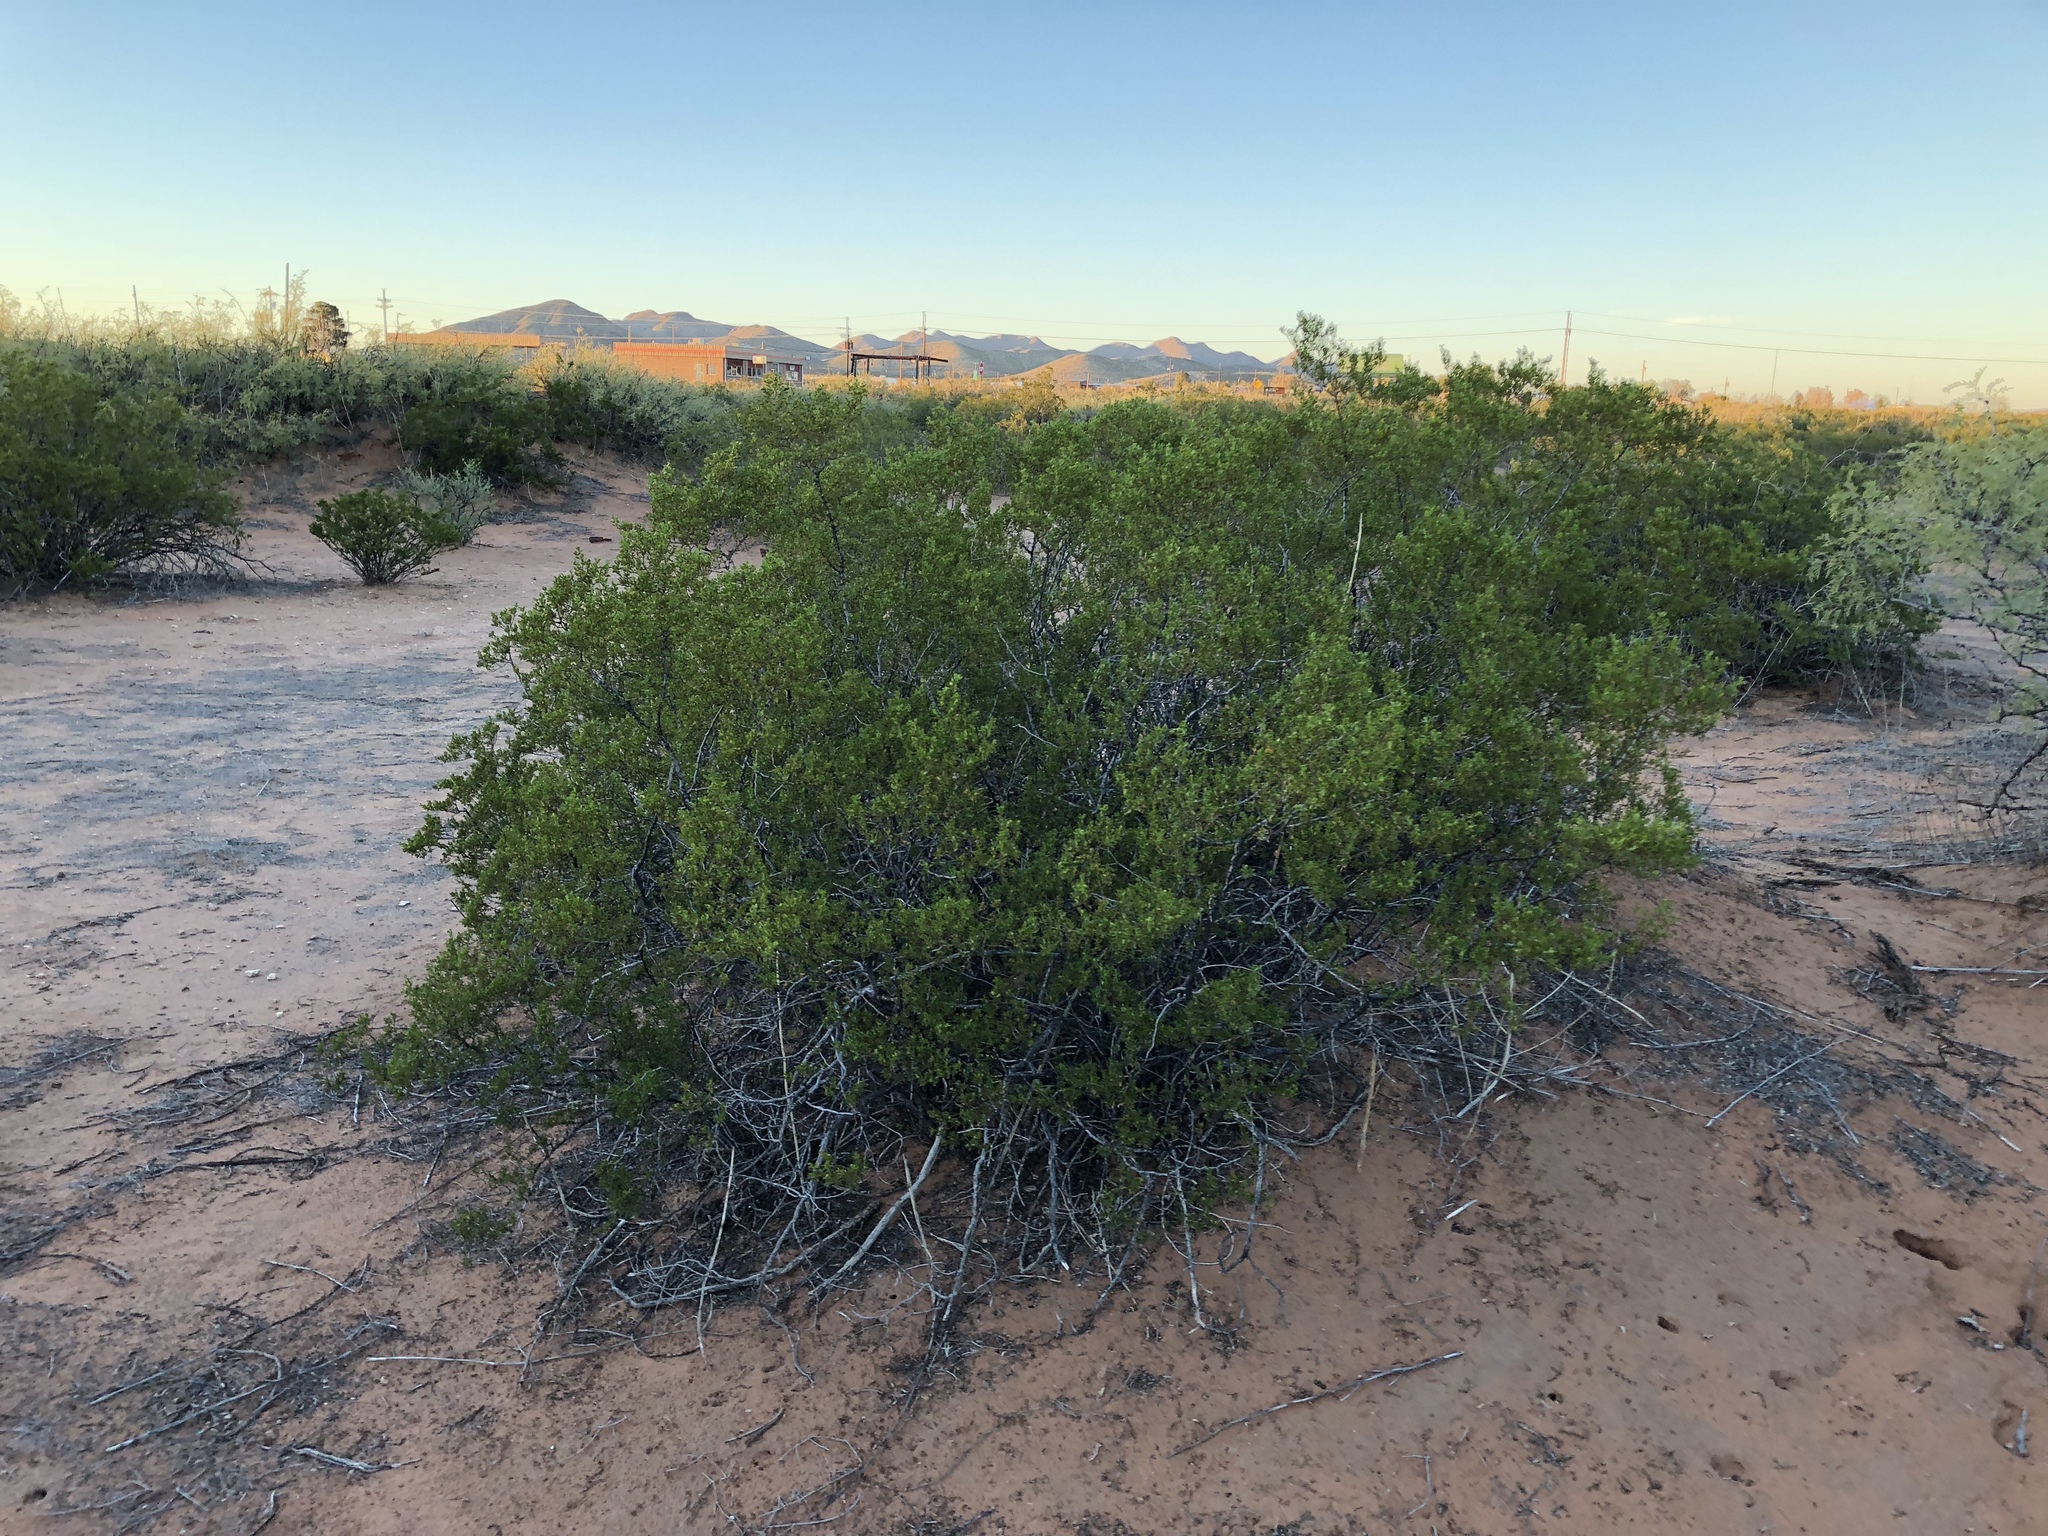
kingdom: Plantae
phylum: Tracheophyta
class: Magnoliopsida
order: Zygophyllales
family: Zygophyllaceae
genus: Larrea
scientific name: Larrea tridentata
